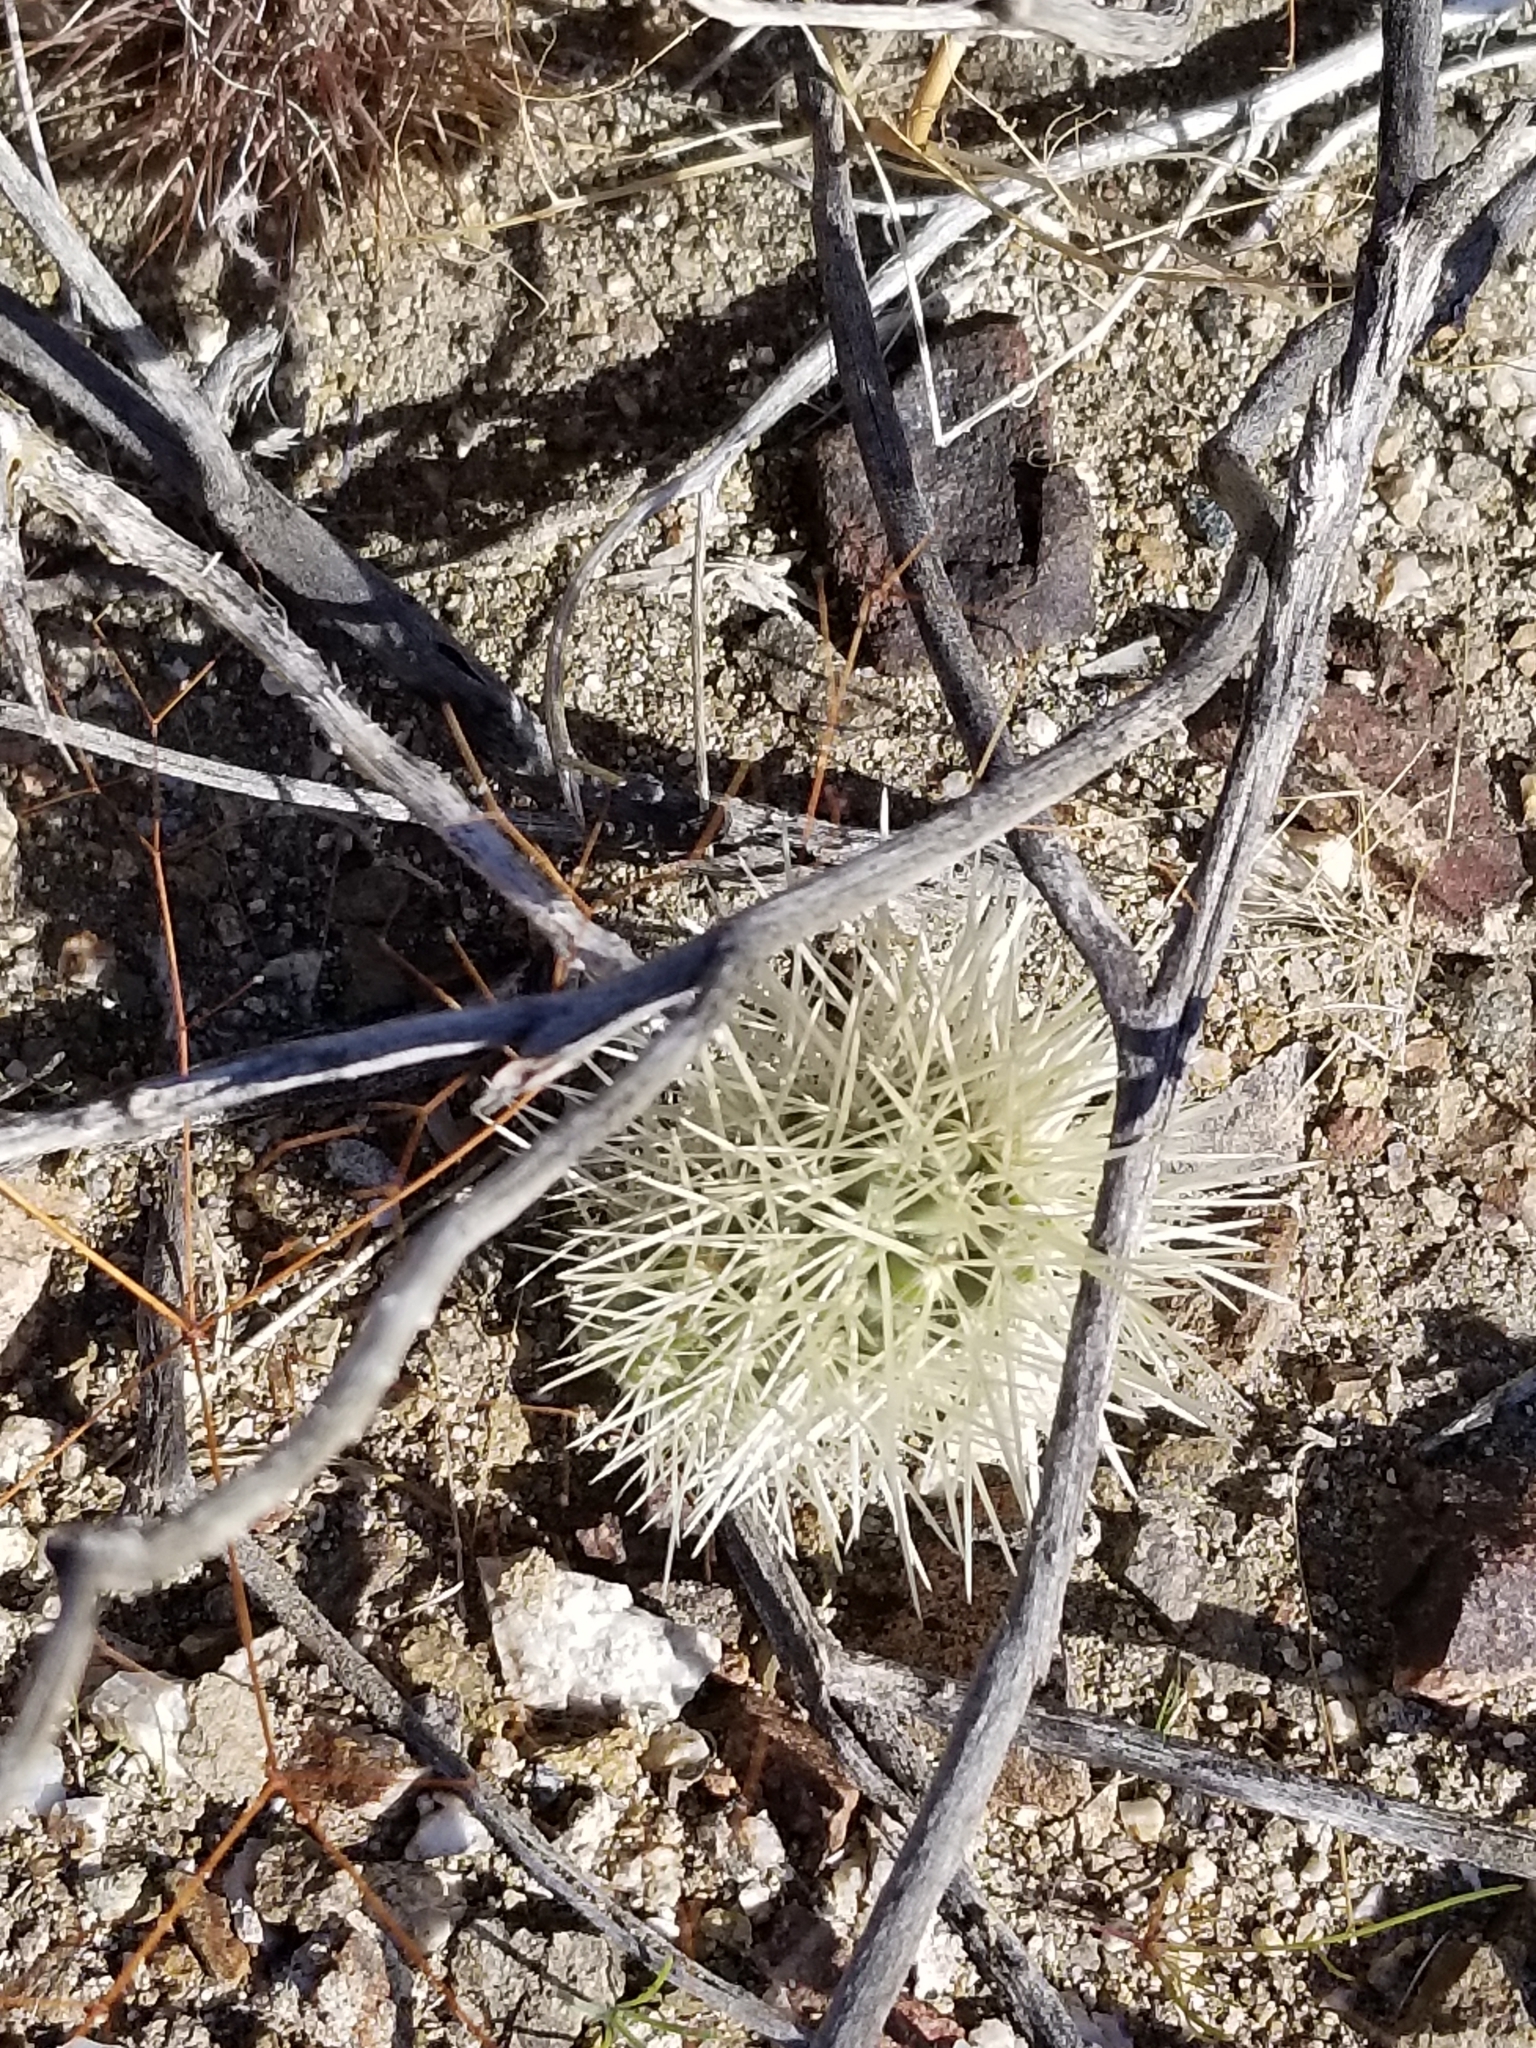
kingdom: Plantae
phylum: Tracheophyta
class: Magnoliopsida
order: Caryophyllales
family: Cactaceae
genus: Cylindropuntia
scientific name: Cylindropuntia fosbergii
